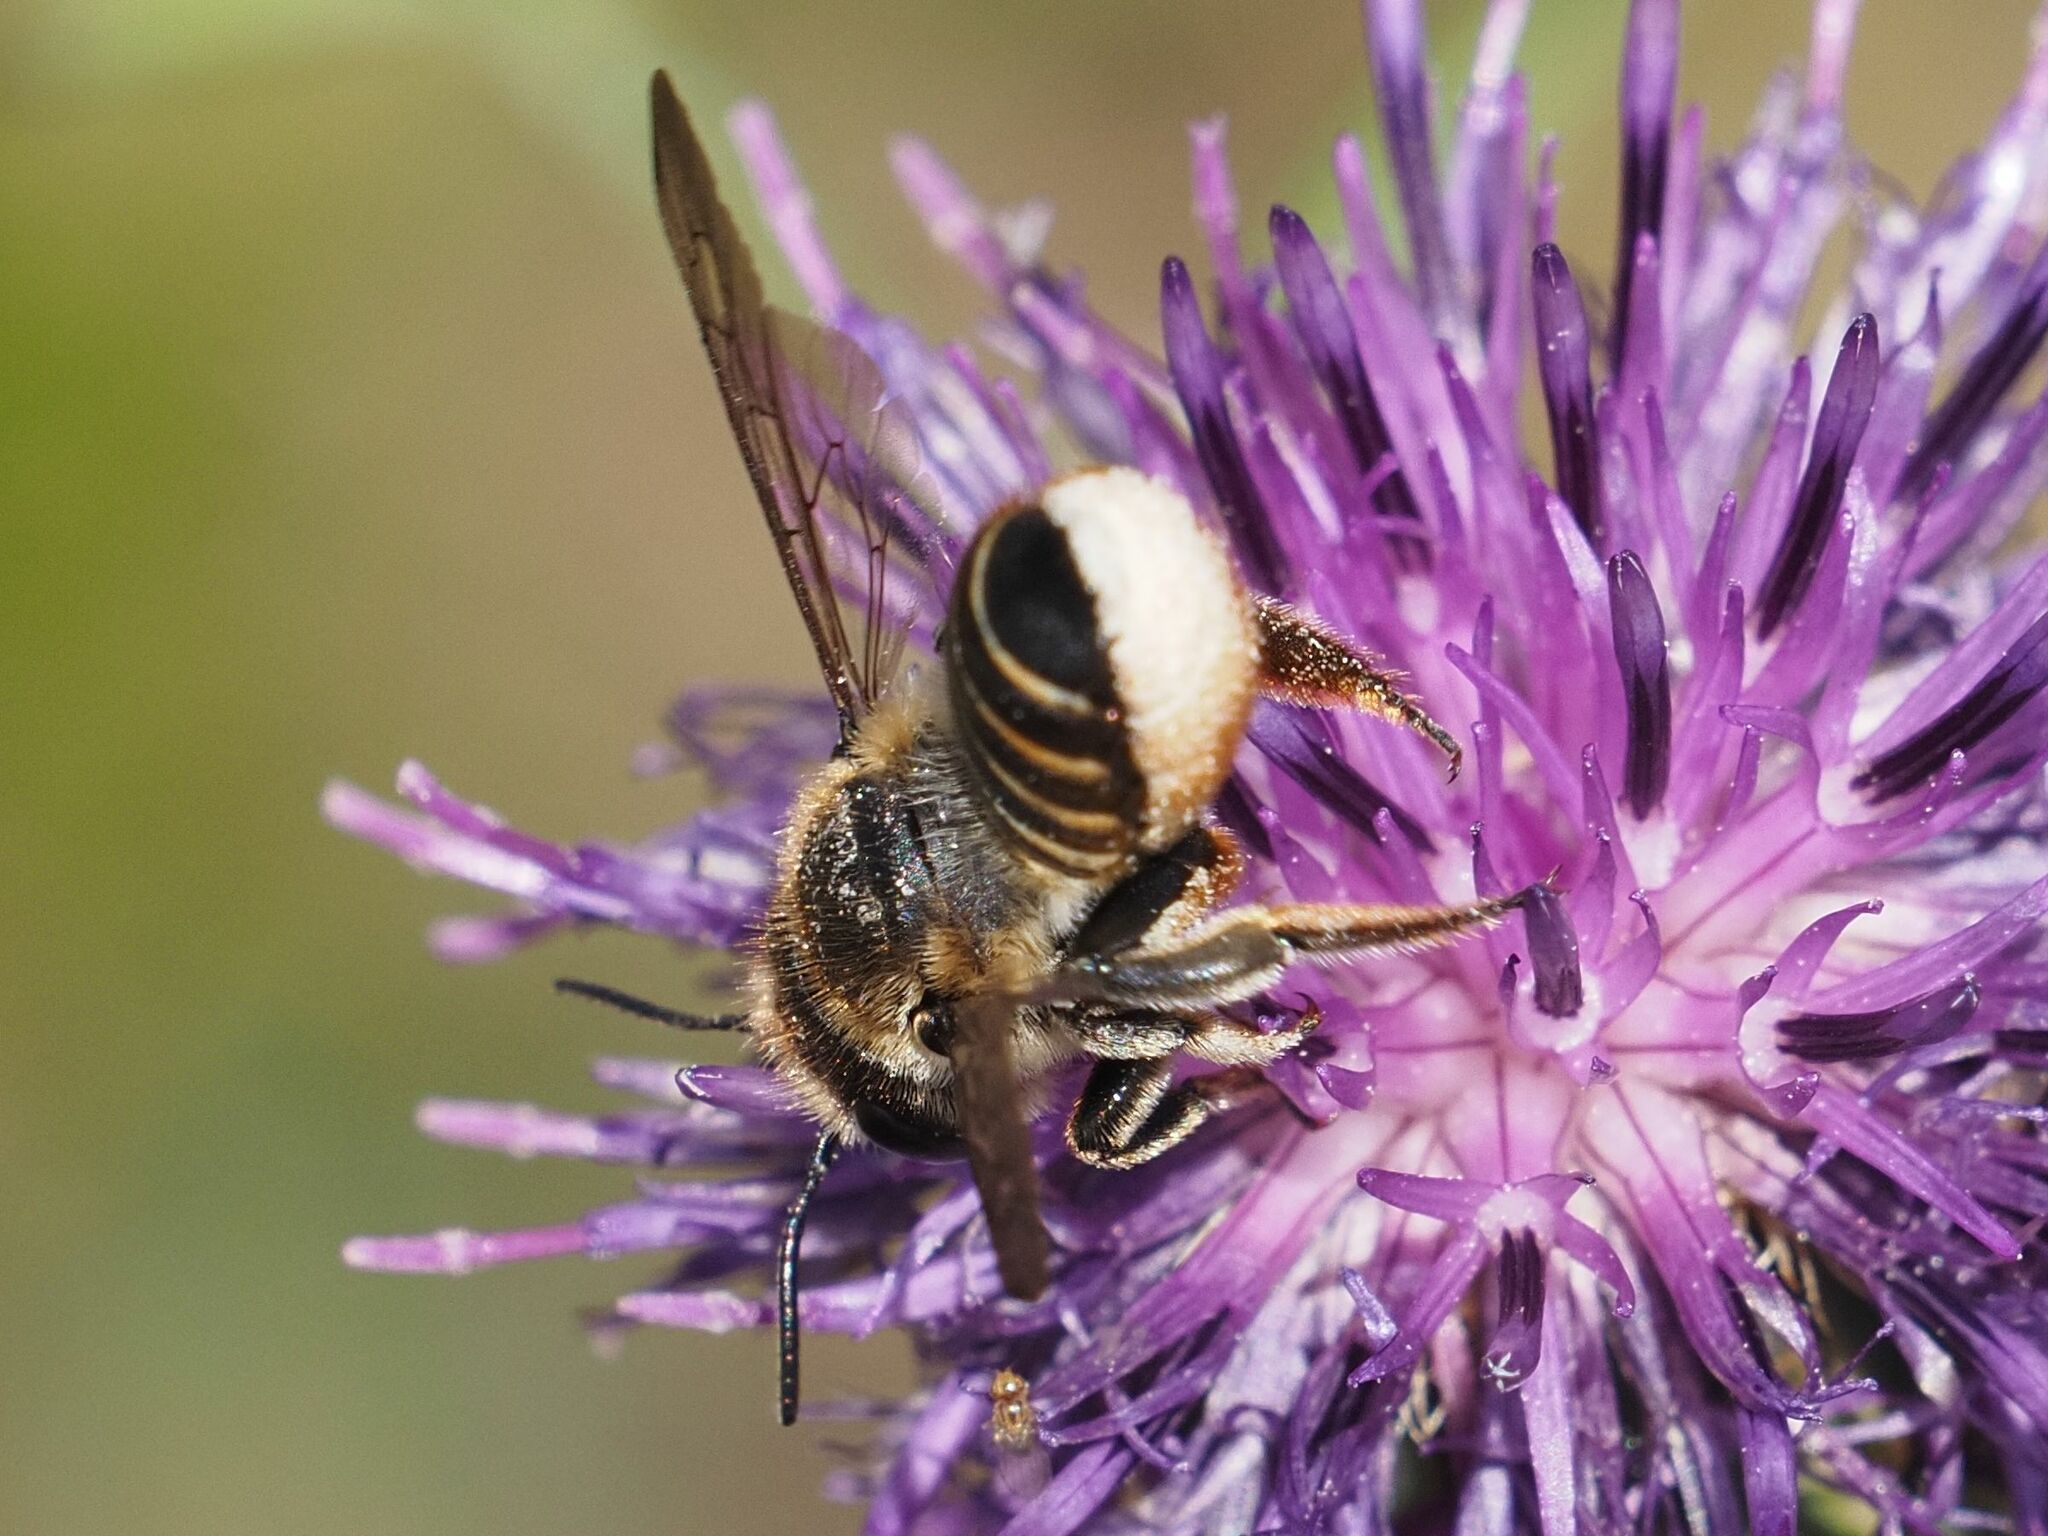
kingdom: Animalia
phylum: Arthropoda
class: Insecta
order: Hymenoptera
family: Megachilidae
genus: Megachile
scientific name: Megachile pilicrus
